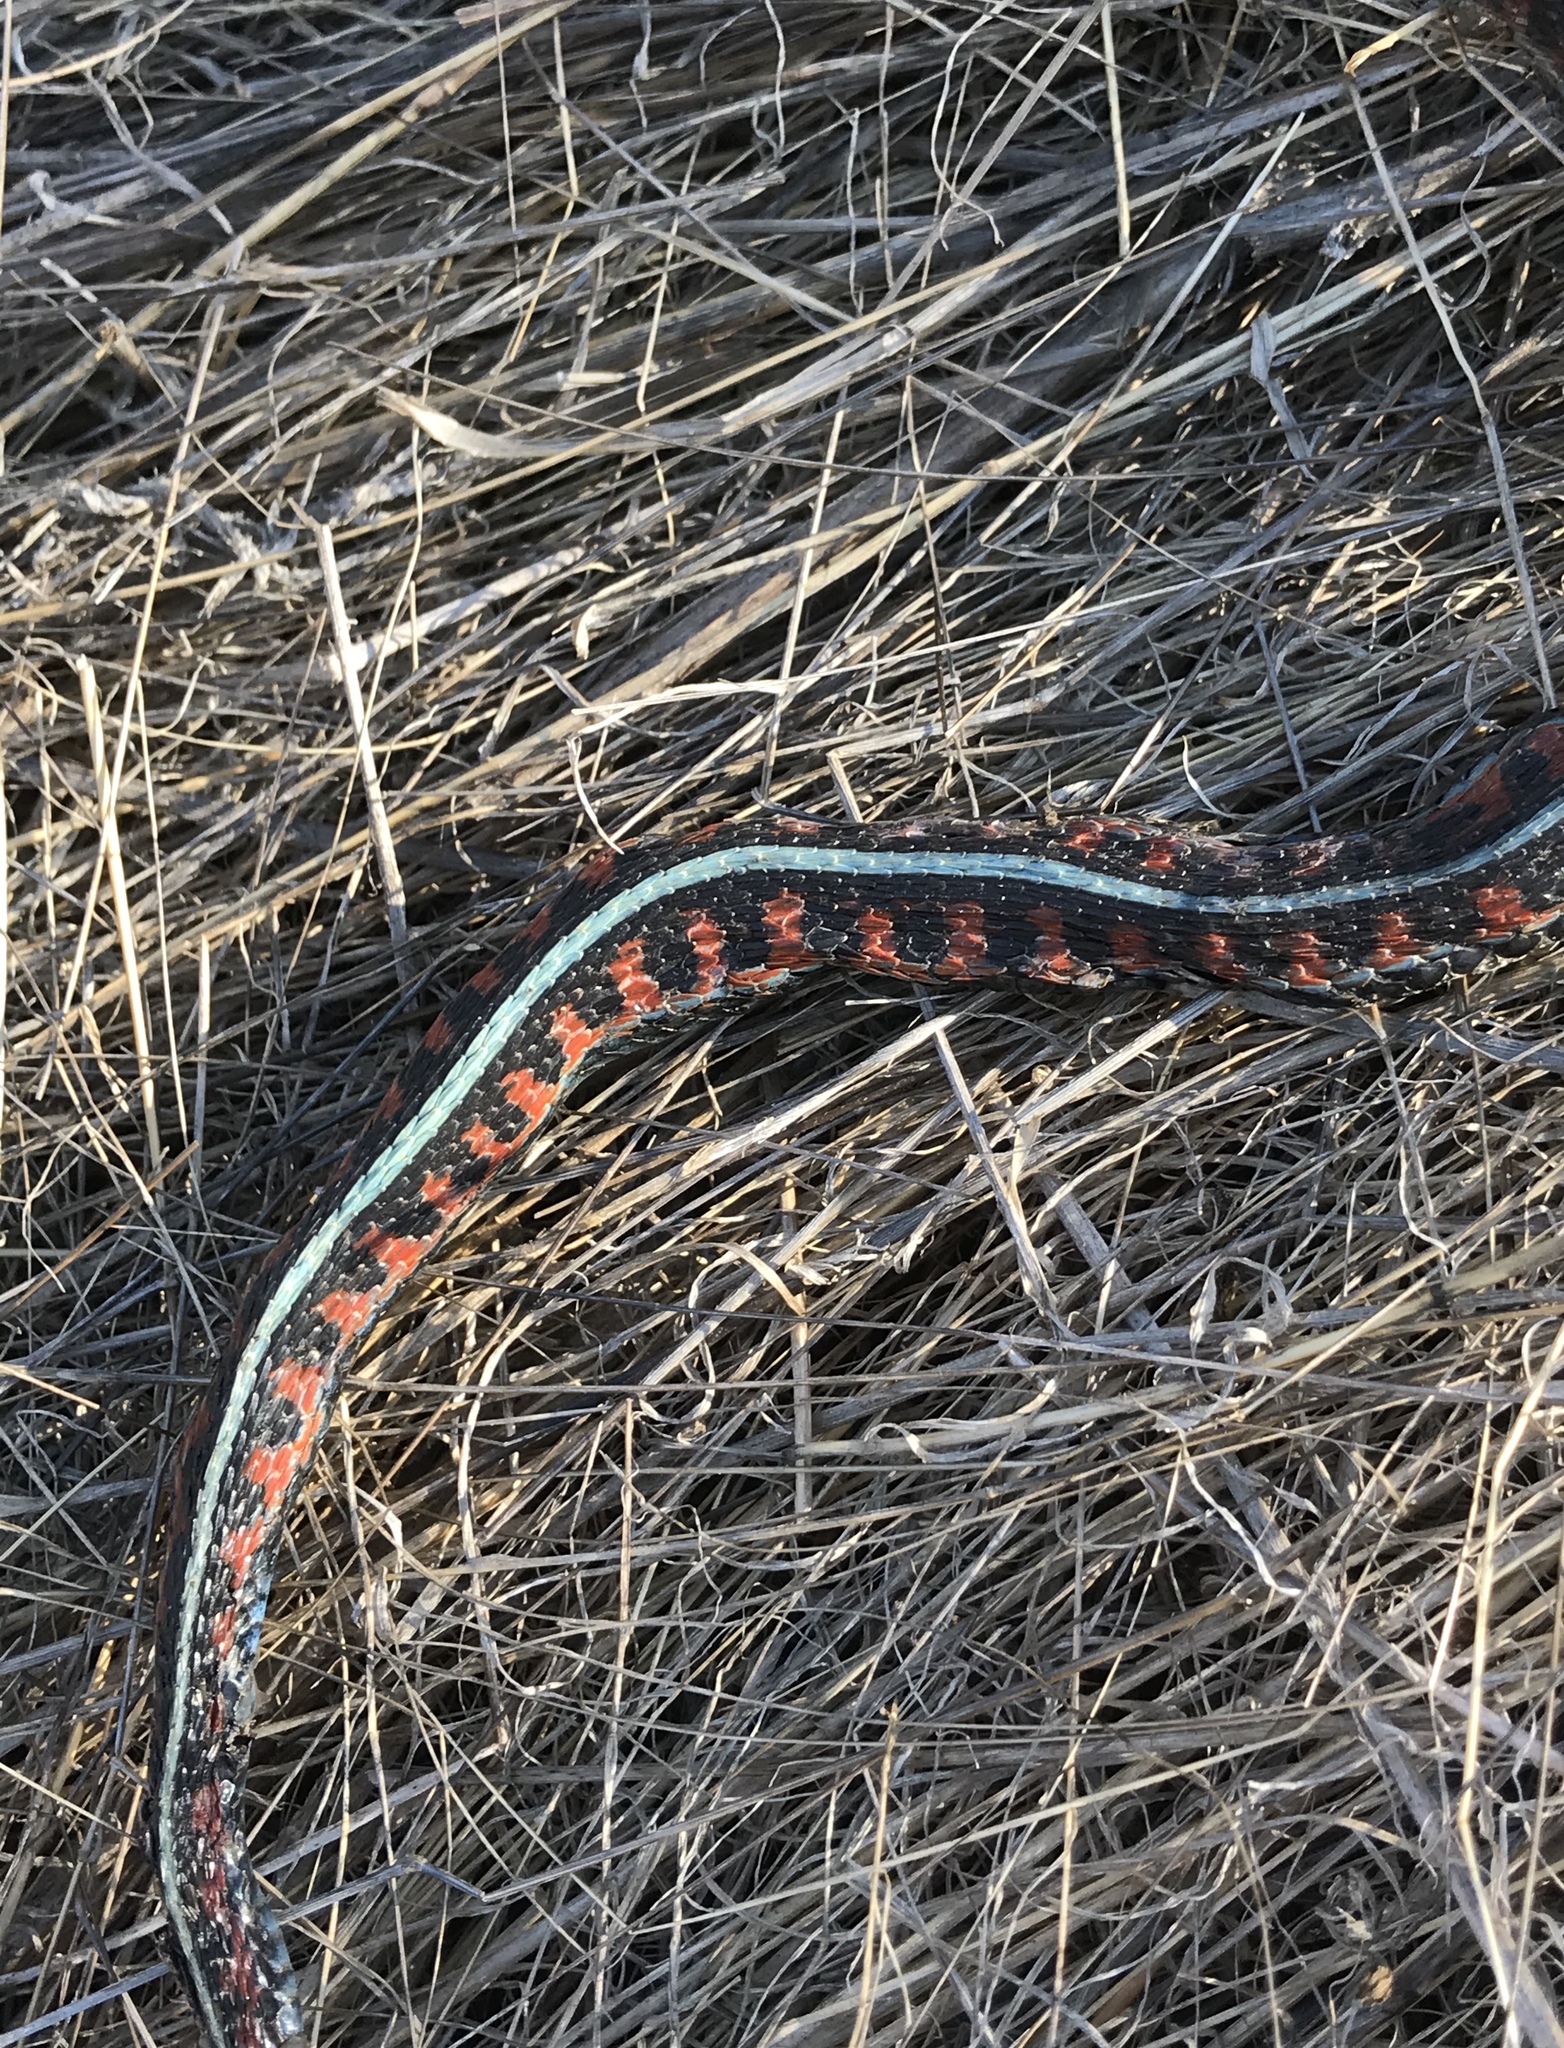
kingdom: Animalia
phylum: Chordata
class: Squamata
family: Colubridae
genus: Thamnophis
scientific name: Thamnophis sirtalis
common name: Common garter snake
